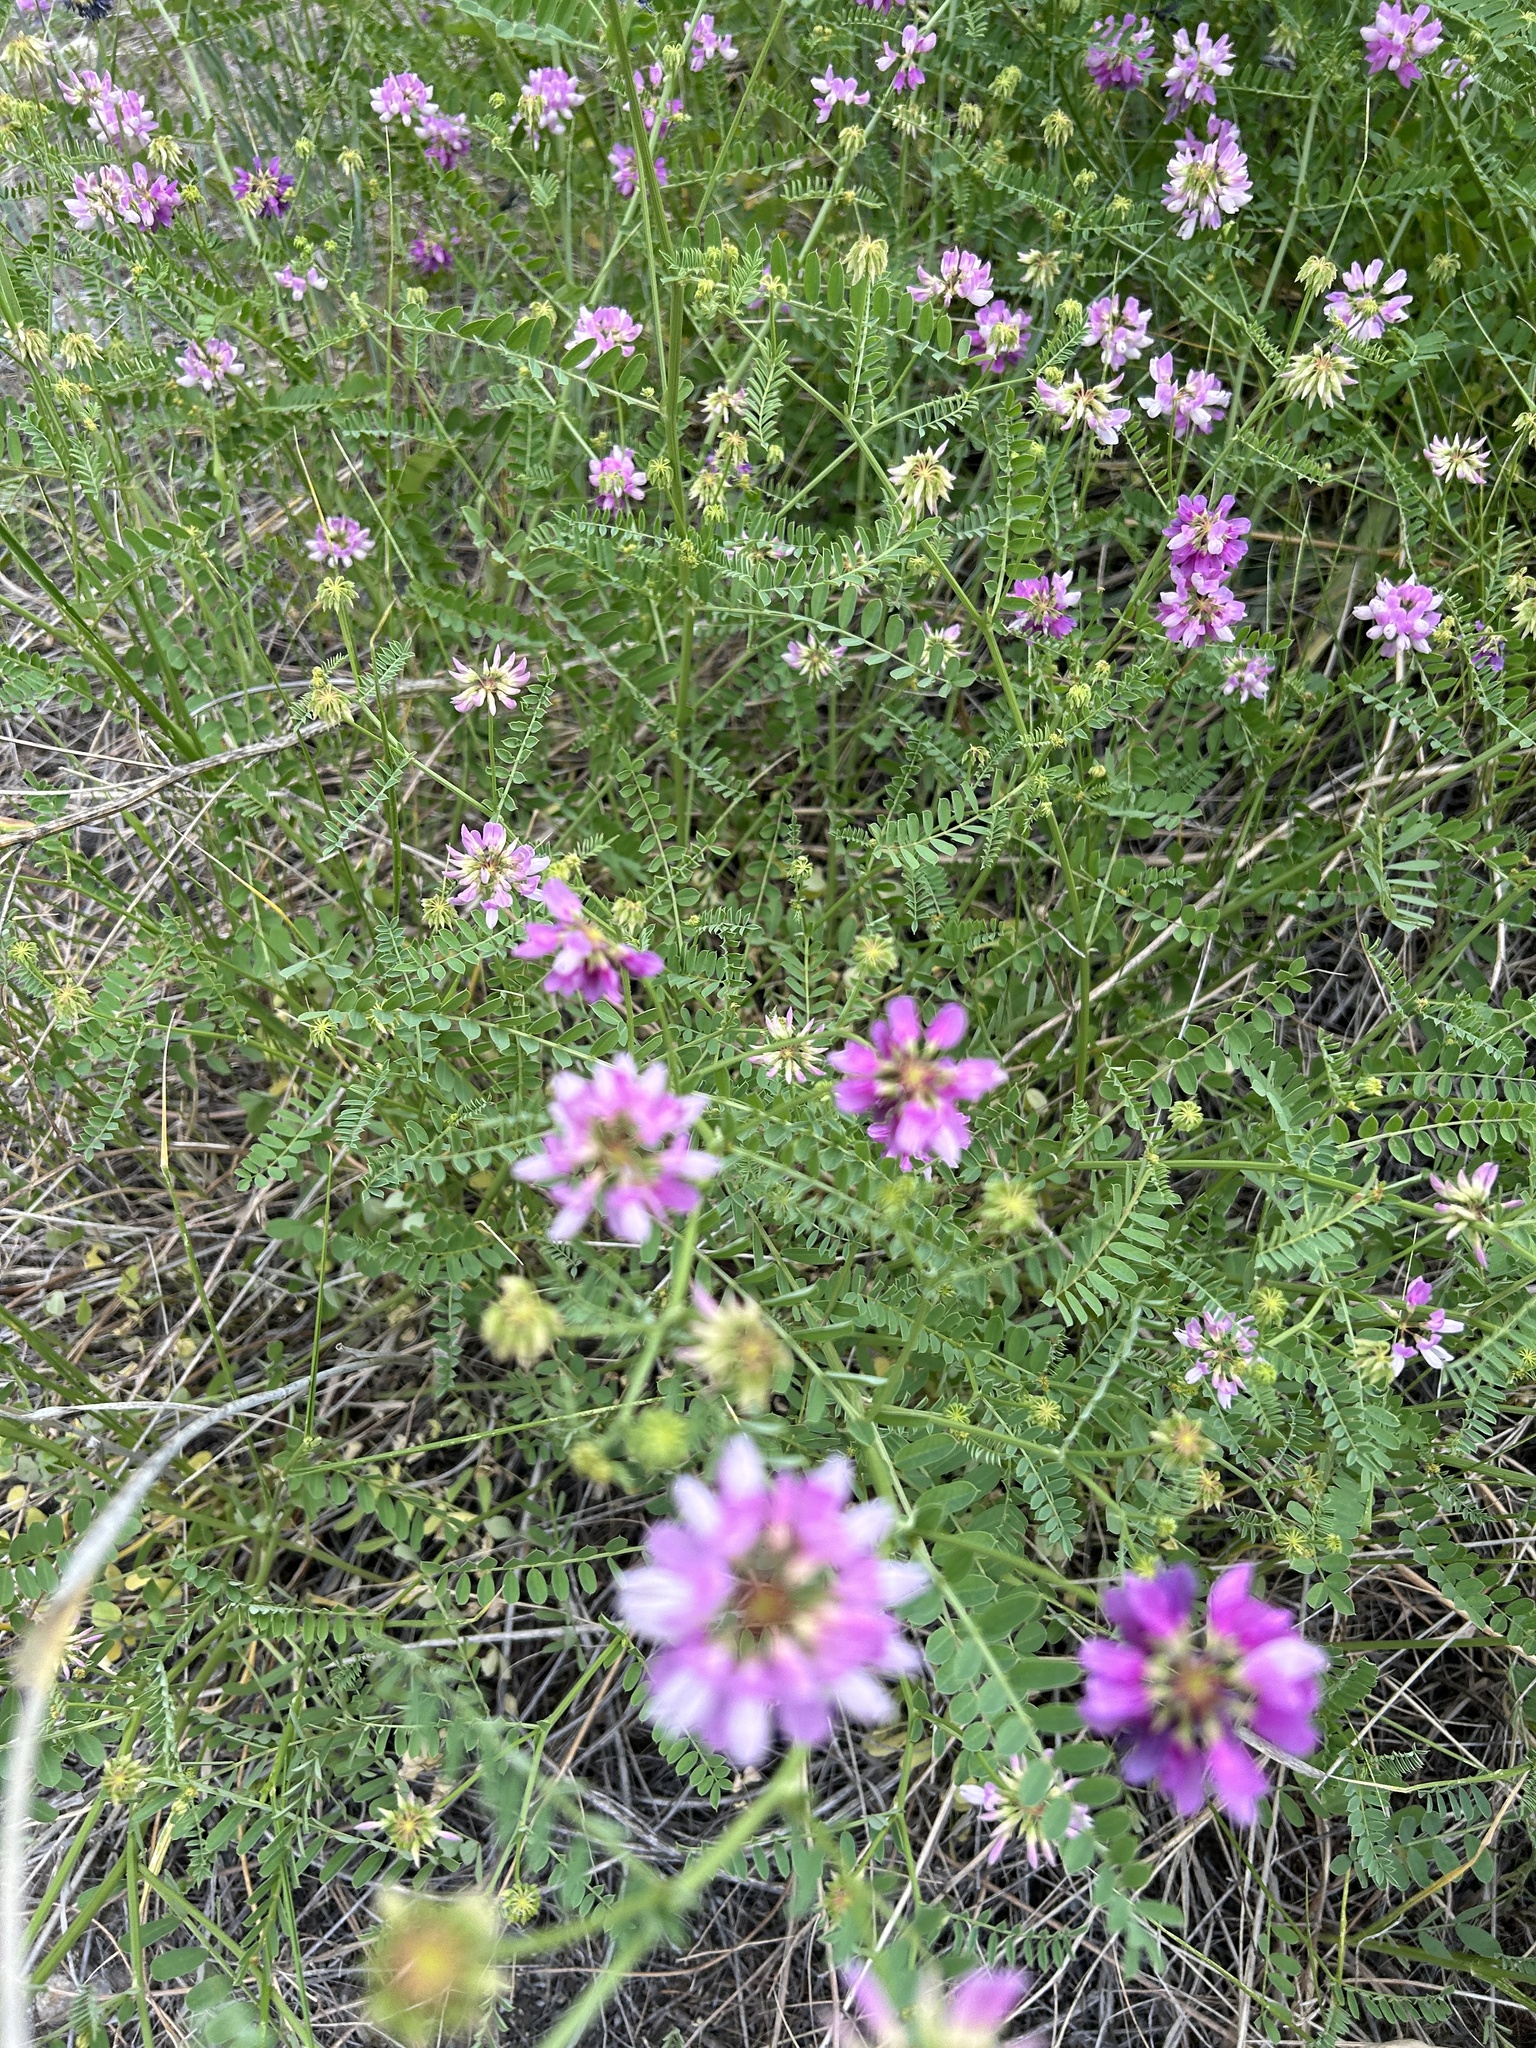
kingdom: Plantae
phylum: Tracheophyta
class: Magnoliopsida
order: Fabales
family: Fabaceae
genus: Coronilla
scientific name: Coronilla varia
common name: Crownvetch
